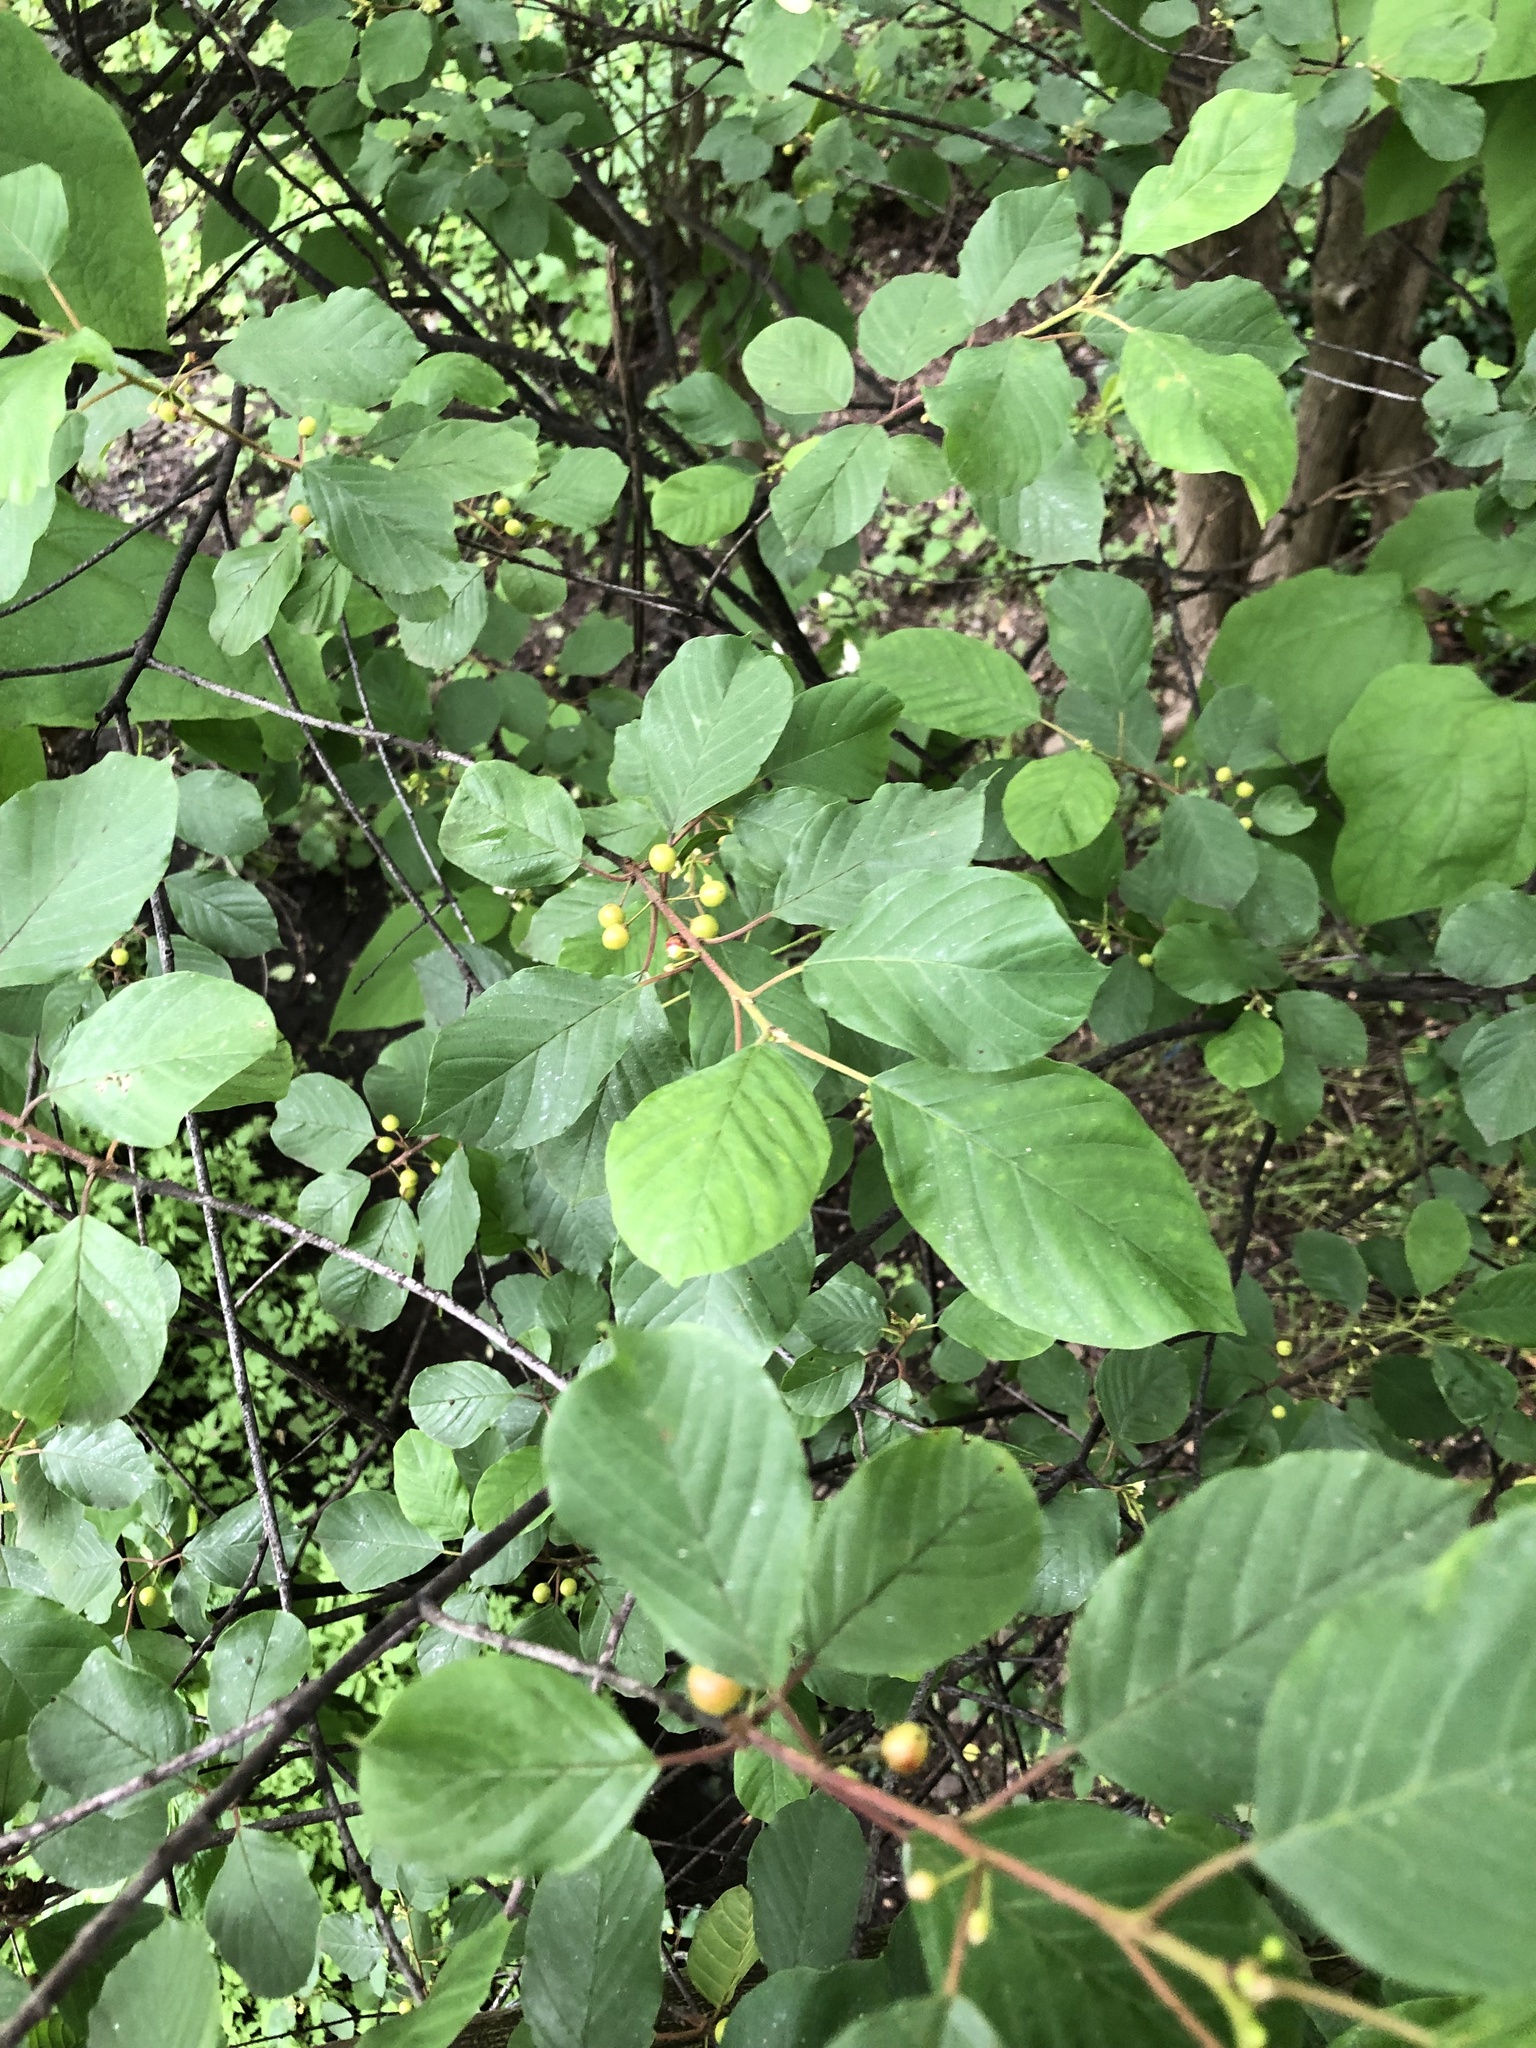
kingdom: Plantae
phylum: Tracheophyta
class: Magnoliopsida
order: Rosales
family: Rhamnaceae
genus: Frangula
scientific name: Frangula alnus
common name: Alder buckthorn
